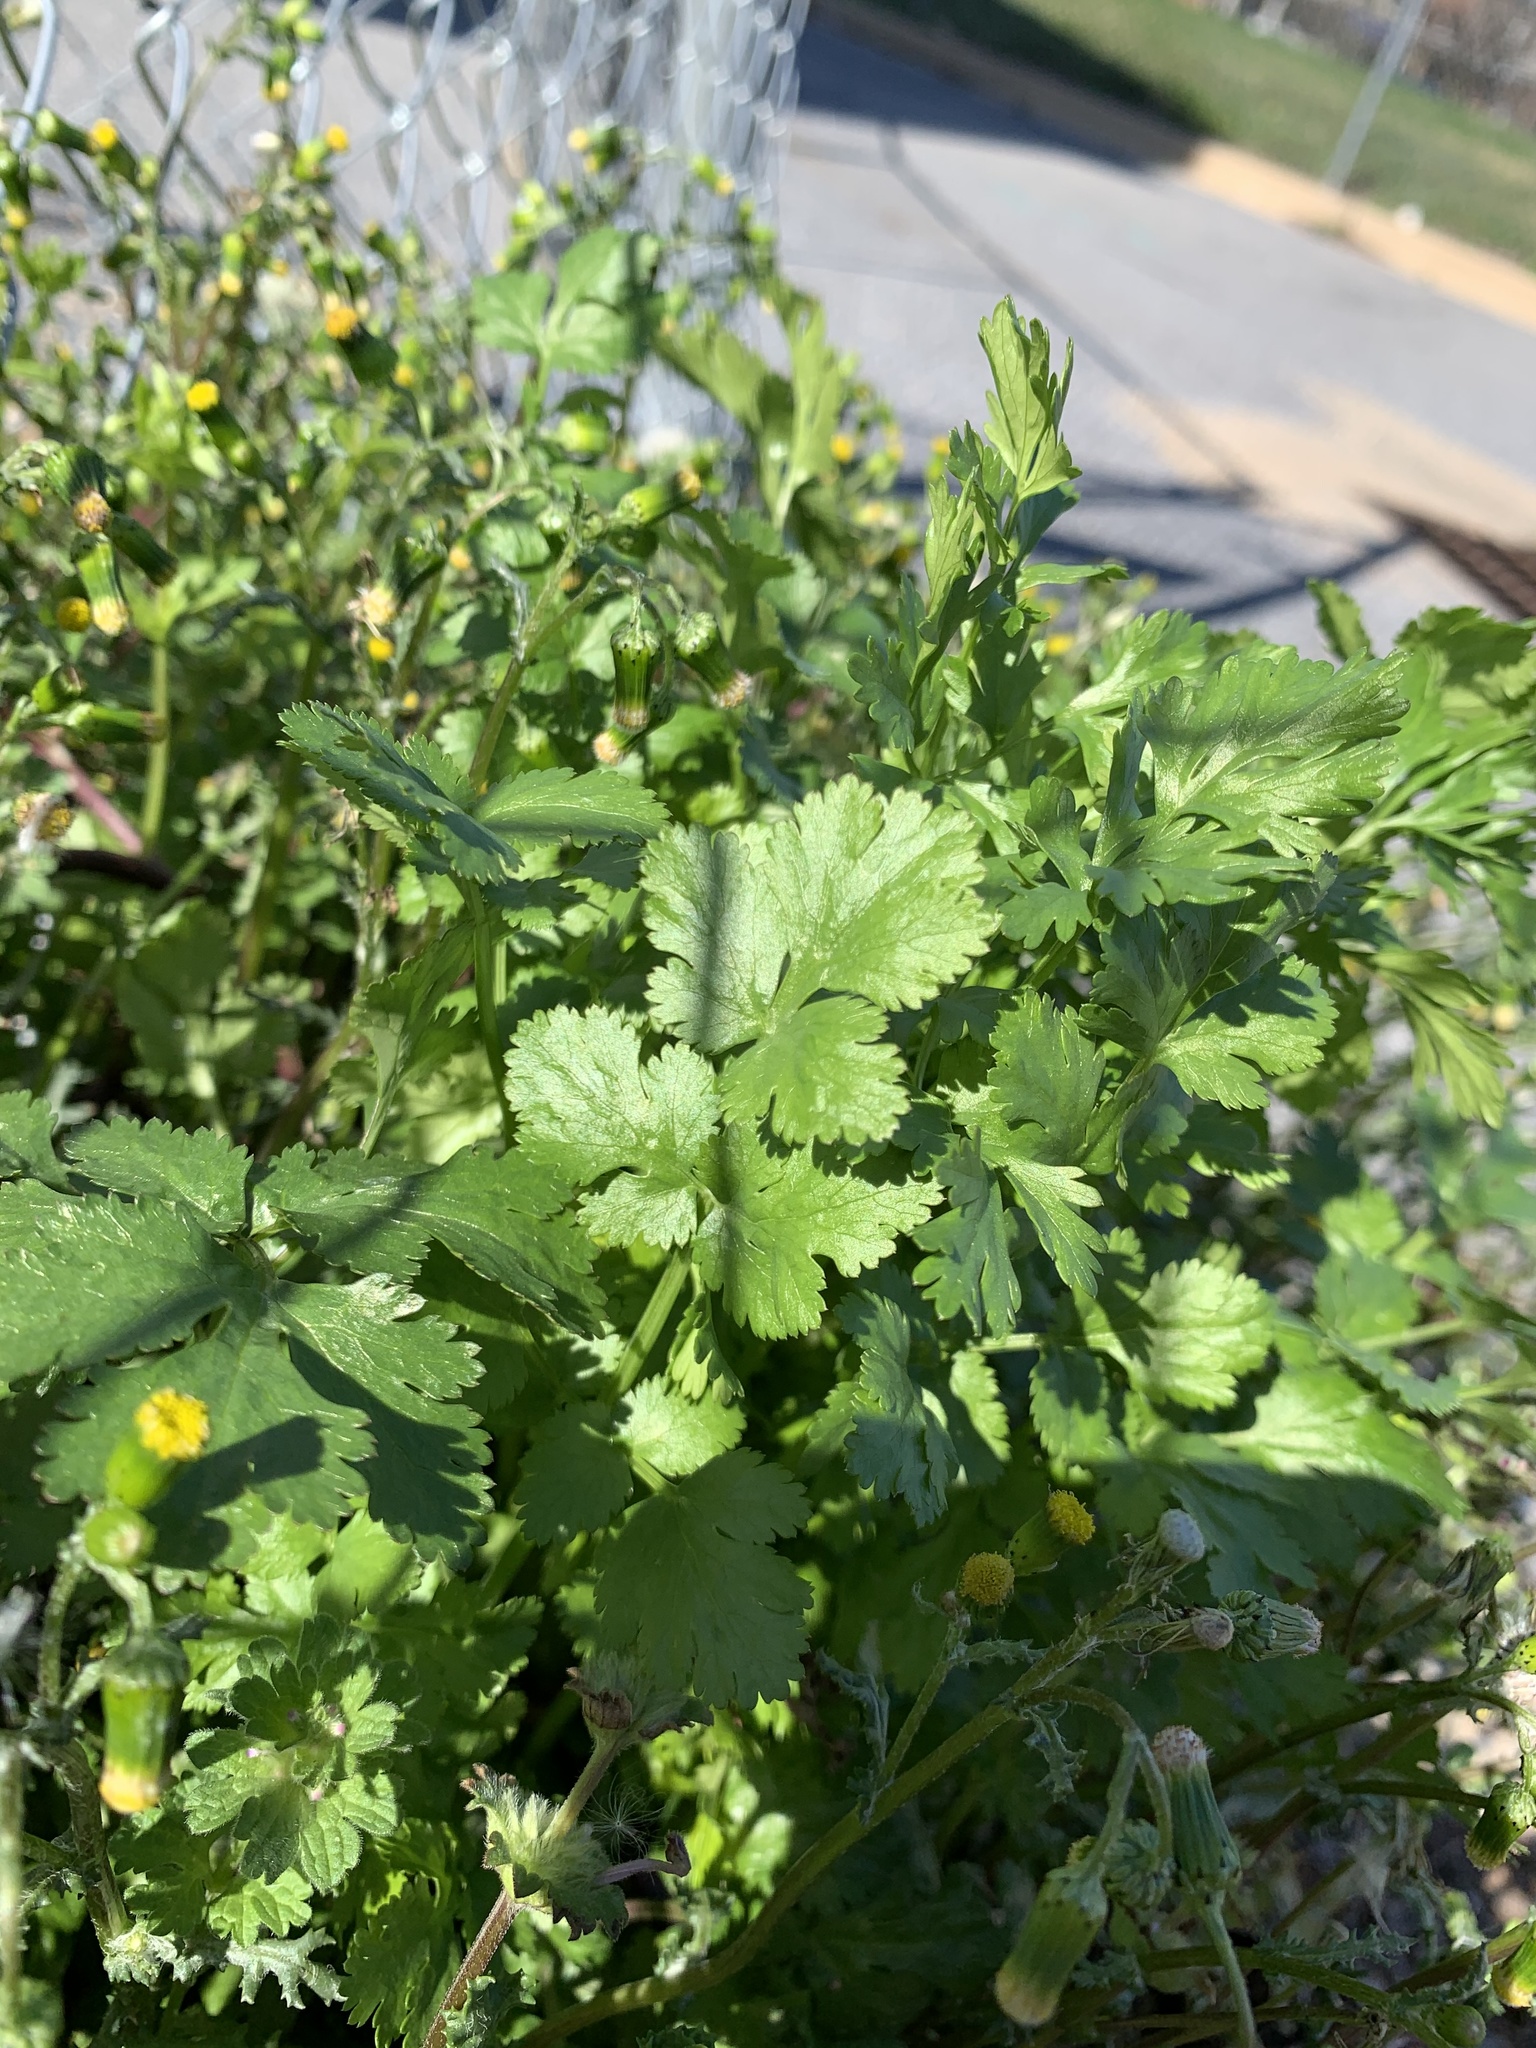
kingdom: Plantae
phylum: Tracheophyta
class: Magnoliopsida
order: Apiales
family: Apiaceae
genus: Coriandrum
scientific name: Coriandrum sativum
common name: Coriander
